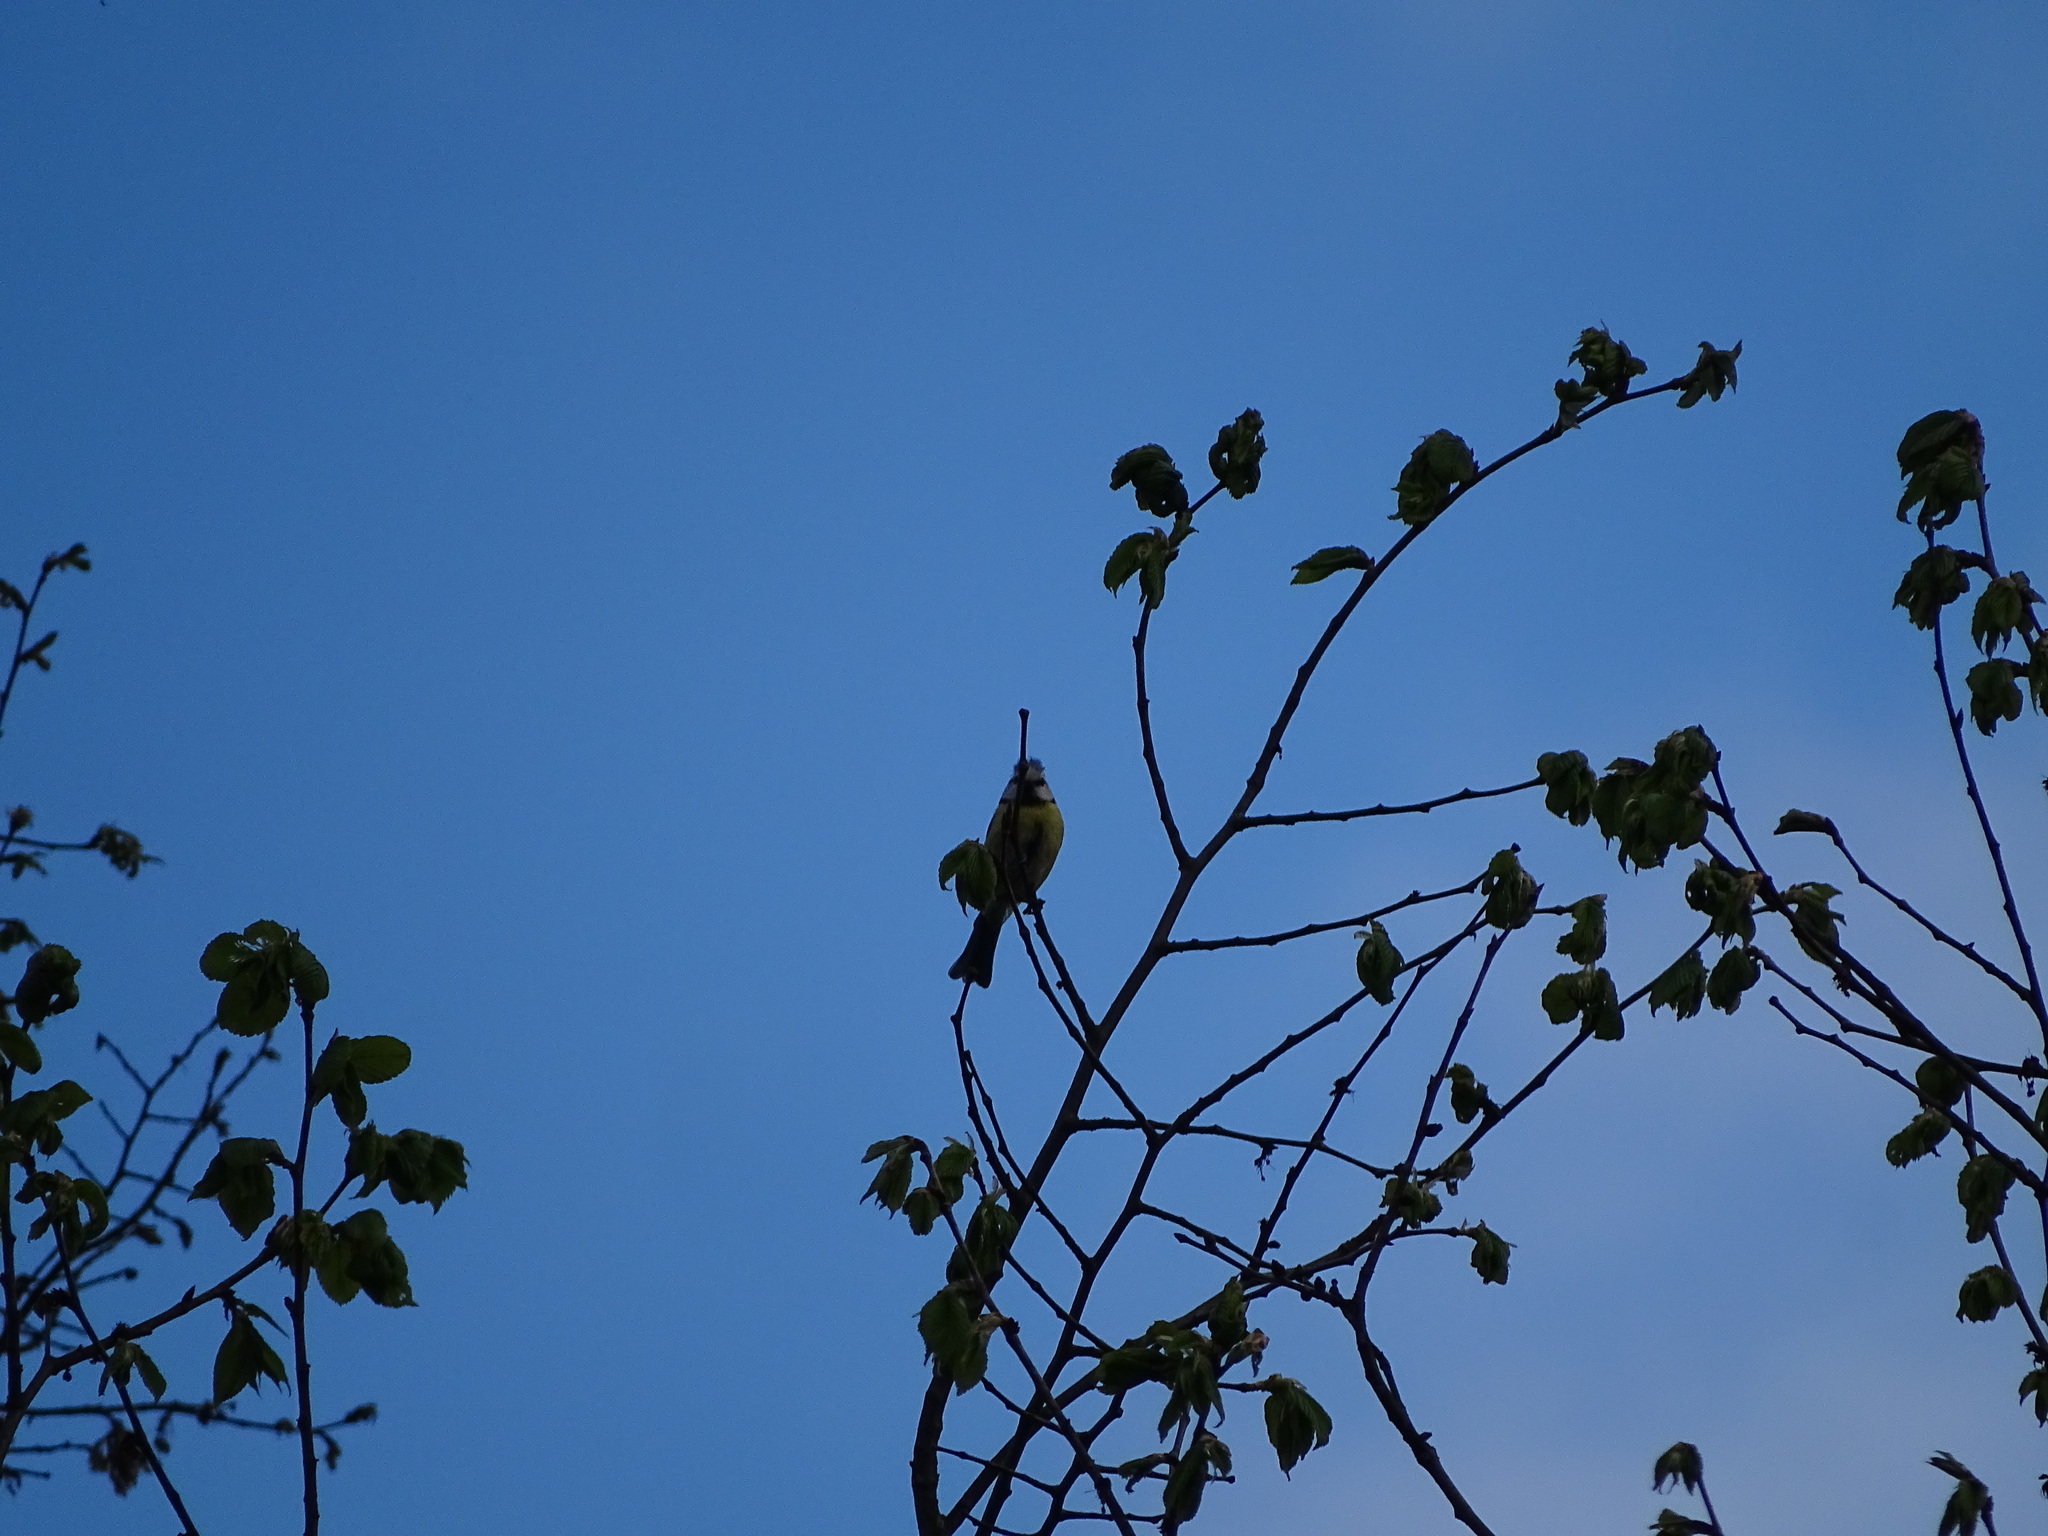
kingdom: Animalia
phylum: Chordata
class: Aves
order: Passeriformes
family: Paridae
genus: Cyanistes
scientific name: Cyanistes caeruleus
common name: Eurasian blue tit
